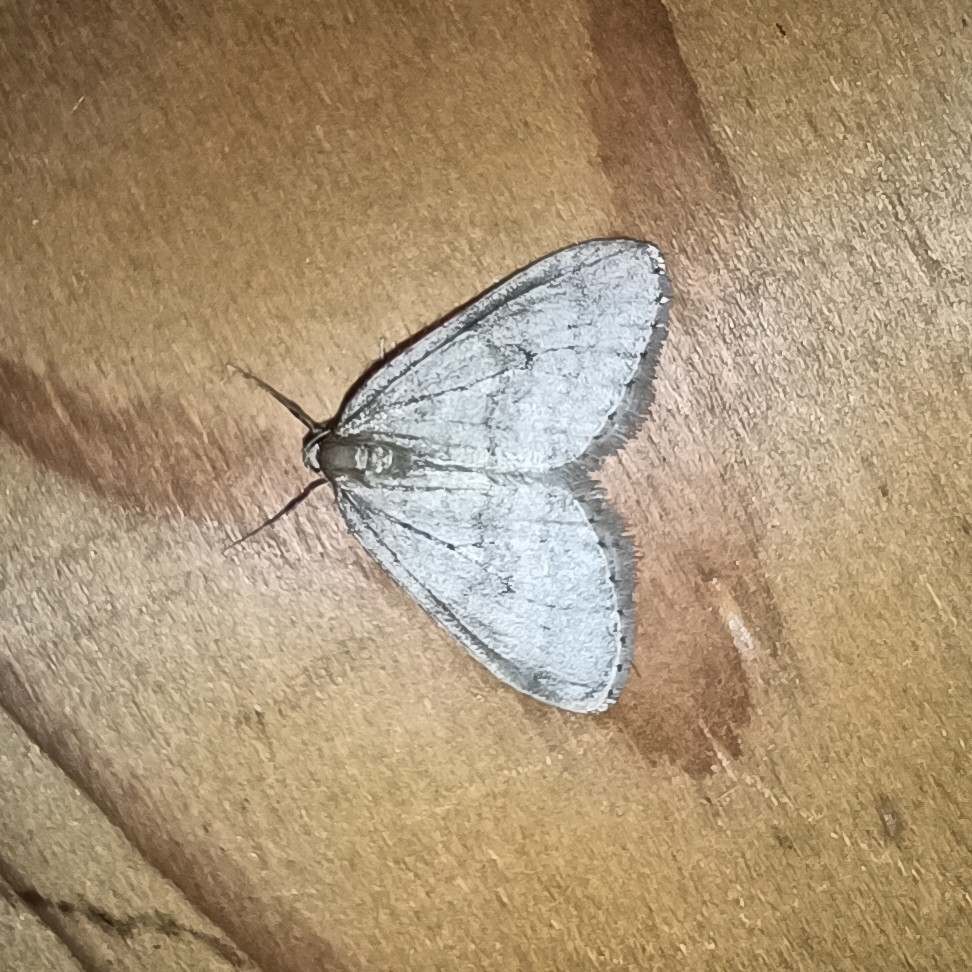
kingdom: Animalia
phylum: Arthropoda
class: Insecta
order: Lepidoptera
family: Geometridae
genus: Operophtera
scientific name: Operophtera brumata
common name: Winter moth
